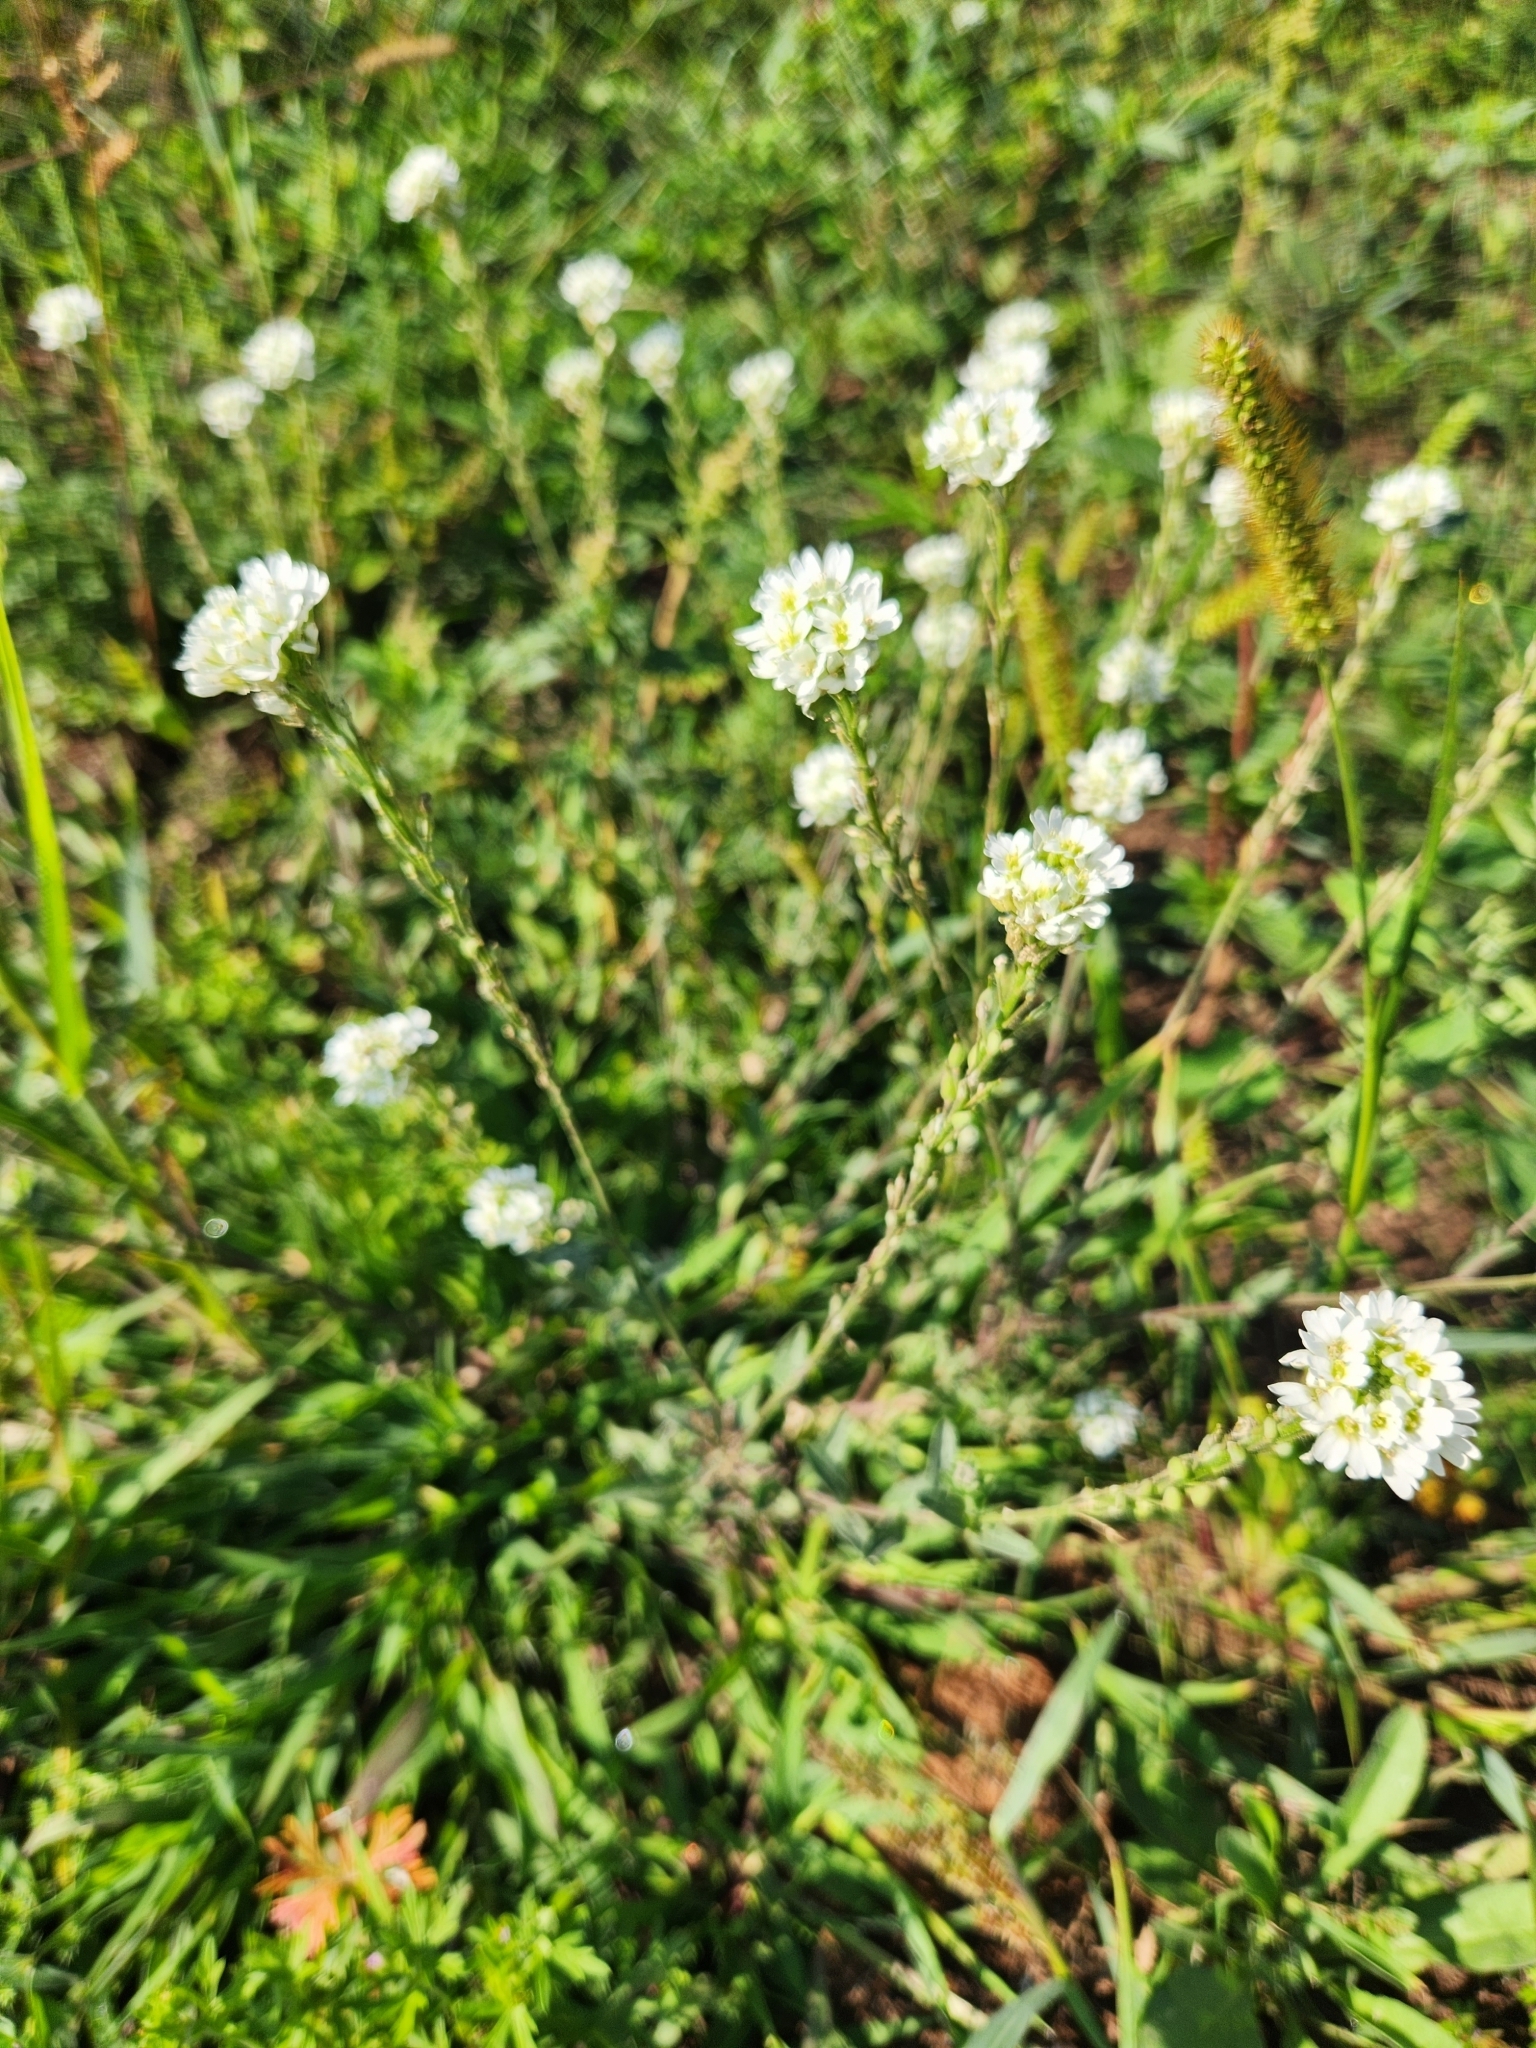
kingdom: Plantae
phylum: Tracheophyta
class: Magnoliopsida
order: Brassicales
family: Brassicaceae
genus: Berteroa
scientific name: Berteroa incana
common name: Hoary alison
